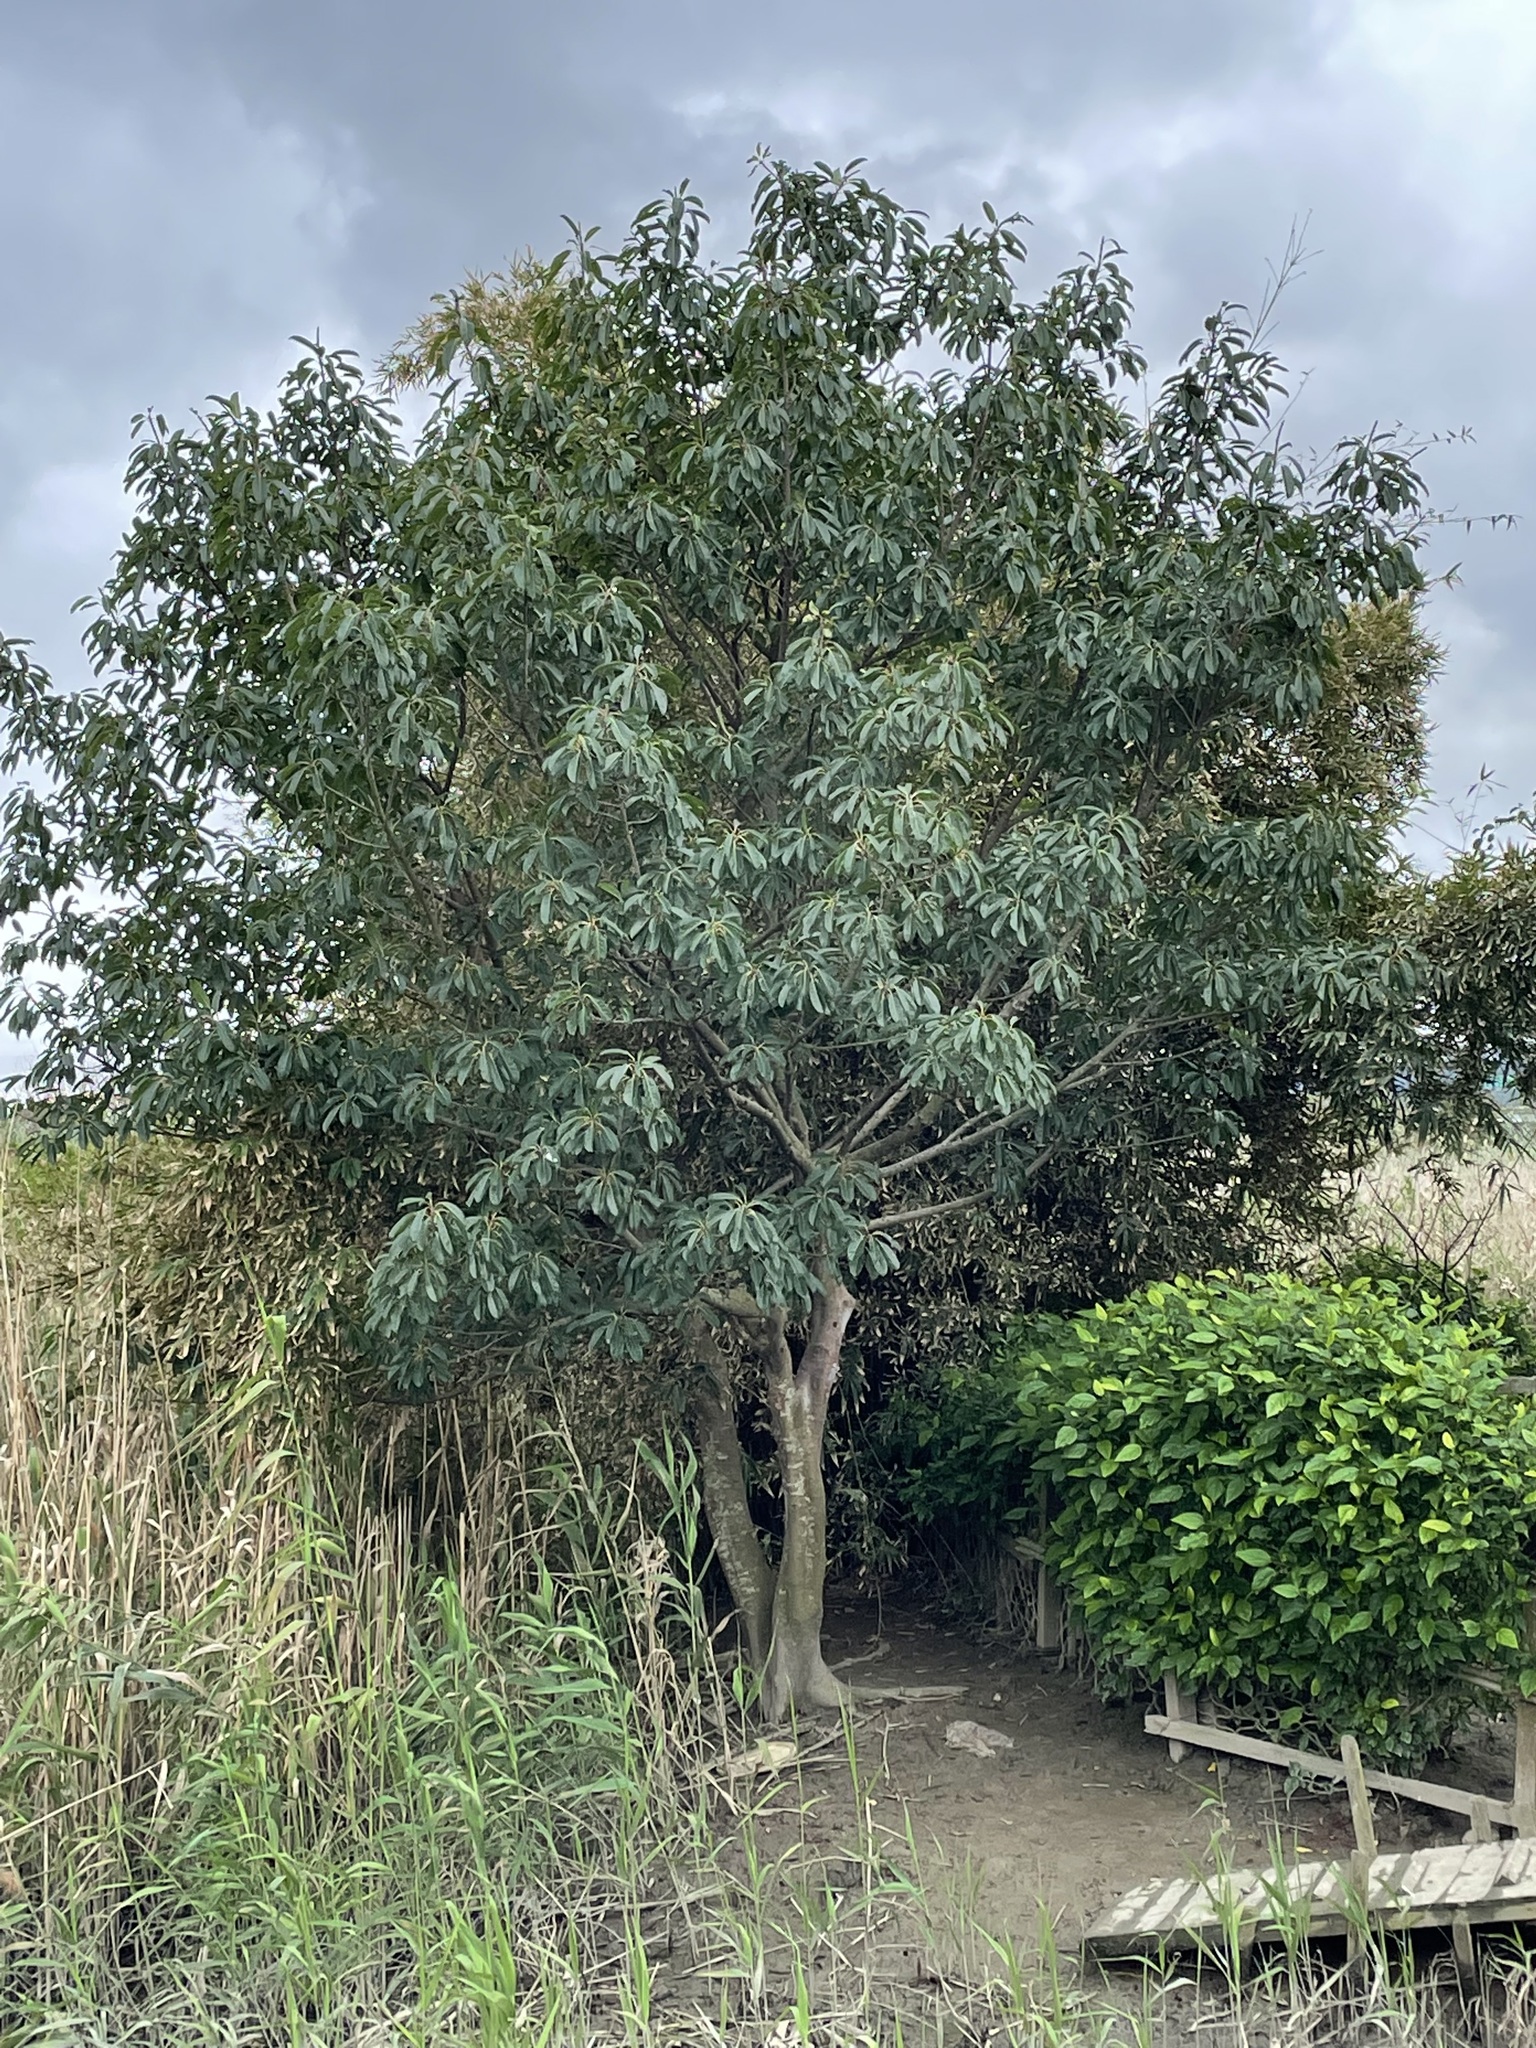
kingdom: Plantae
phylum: Tracheophyta
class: Magnoliopsida
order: Rosales
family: Moraceae
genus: Ficus
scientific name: Ficus subpisocarpa
